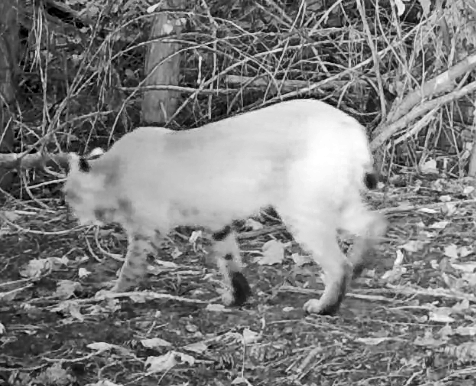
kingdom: Animalia
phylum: Chordata
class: Mammalia
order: Carnivora
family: Felidae
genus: Lynx
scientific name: Lynx rufus
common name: Bobcat
